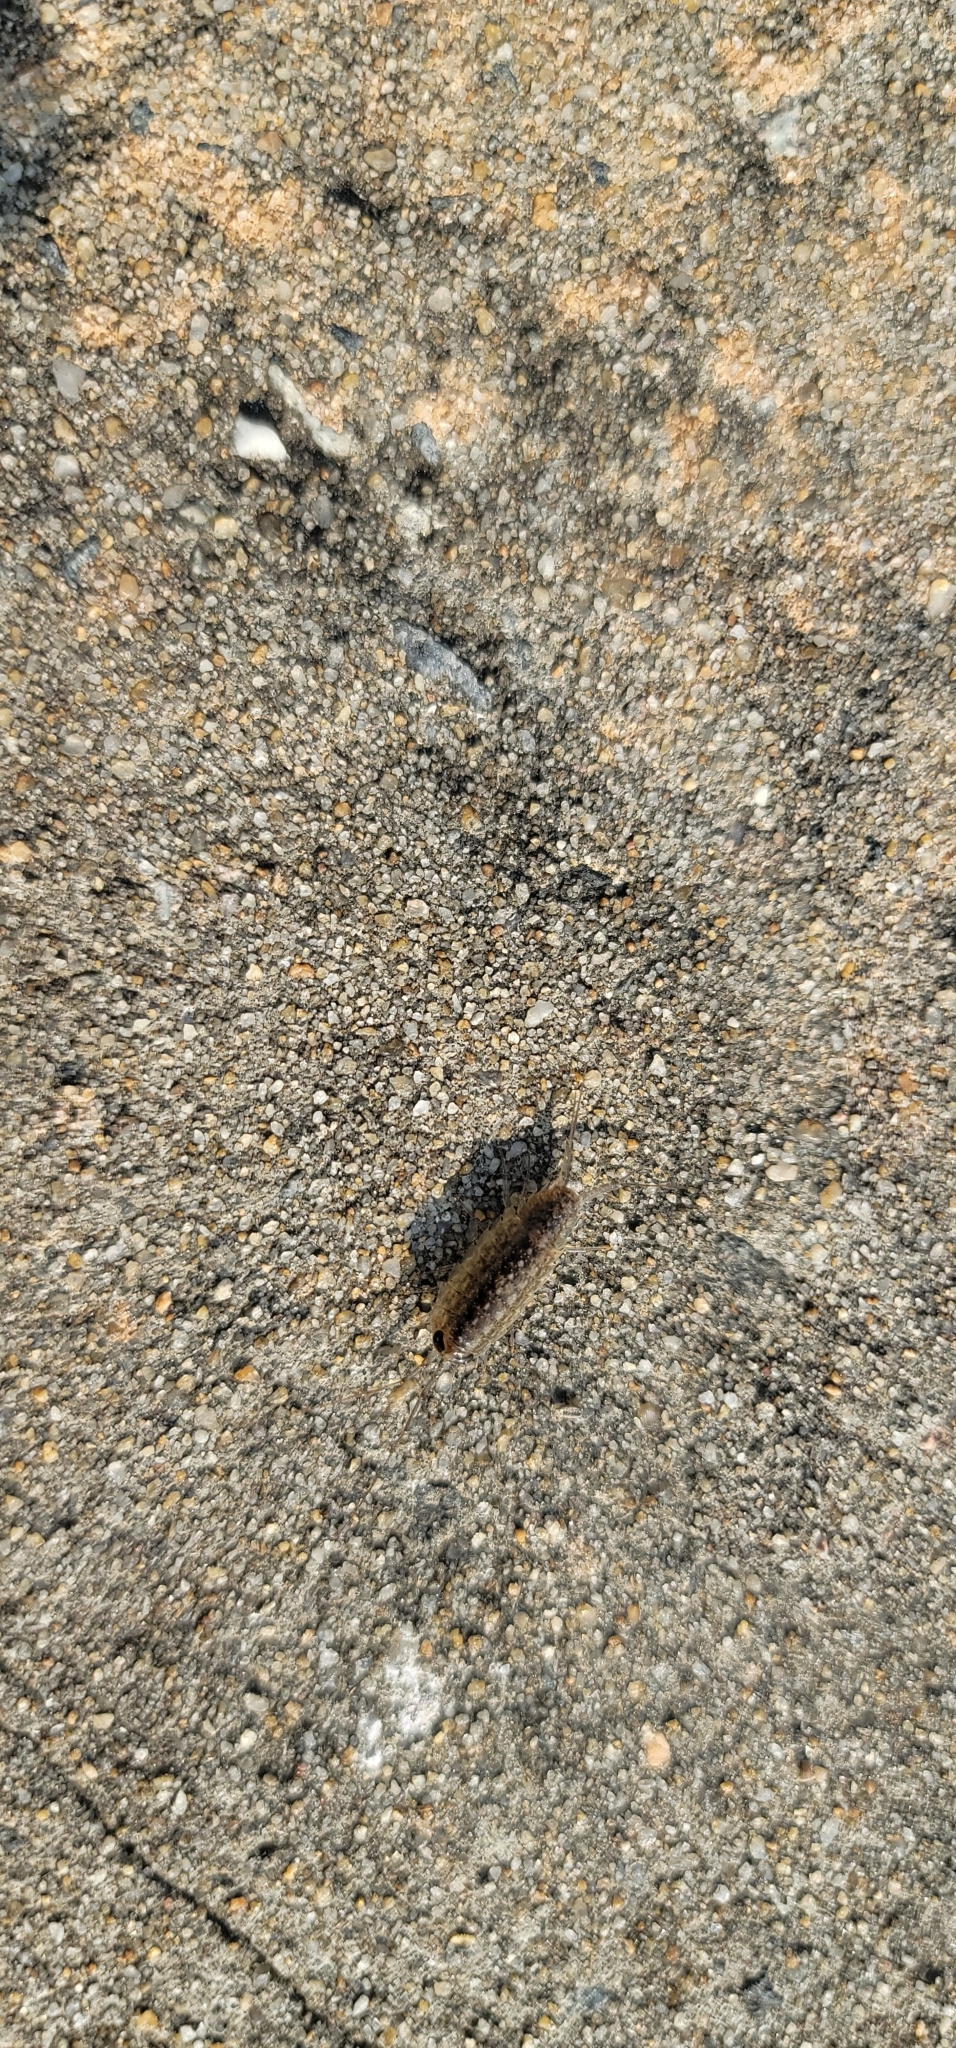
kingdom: Animalia
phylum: Arthropoda
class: Malacostraca
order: Isopoda
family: Ligiidae
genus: Ligia
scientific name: Ligia exotica
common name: Wharf roach
